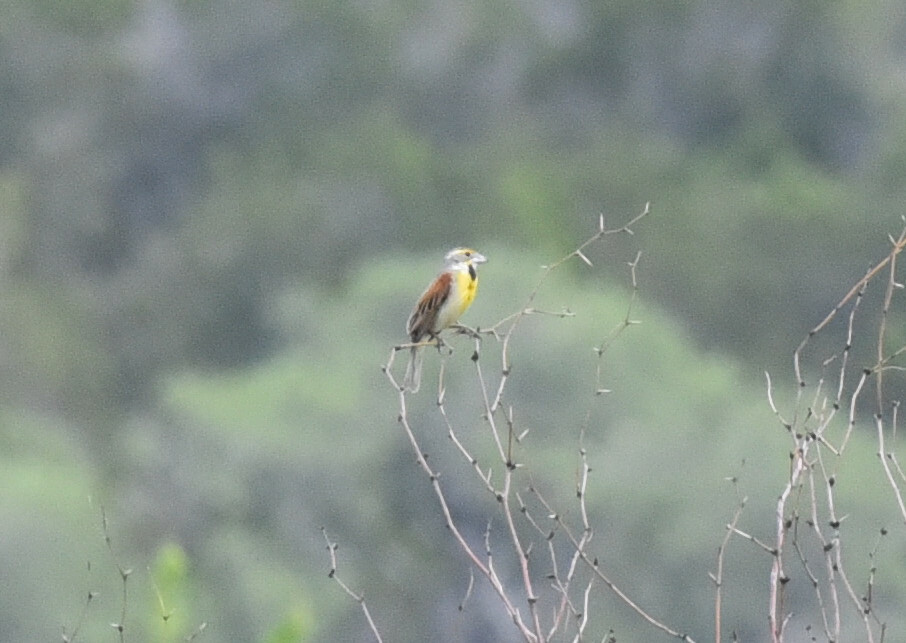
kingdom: Animalia
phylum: Chordata
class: Aves
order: Passeriformes
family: Cardinalidae
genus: Spiza
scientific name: Spiza americana
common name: Dickcissel
